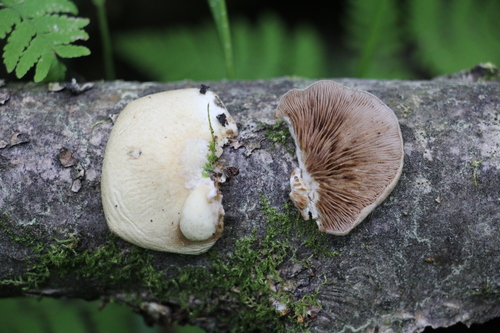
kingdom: Fungi
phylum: Basidiomycota
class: Agaricomycetes
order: Agaricales
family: Crepidotaceae
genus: Crepidotus
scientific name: Crepidotus mollis
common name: Peeling oysterling
